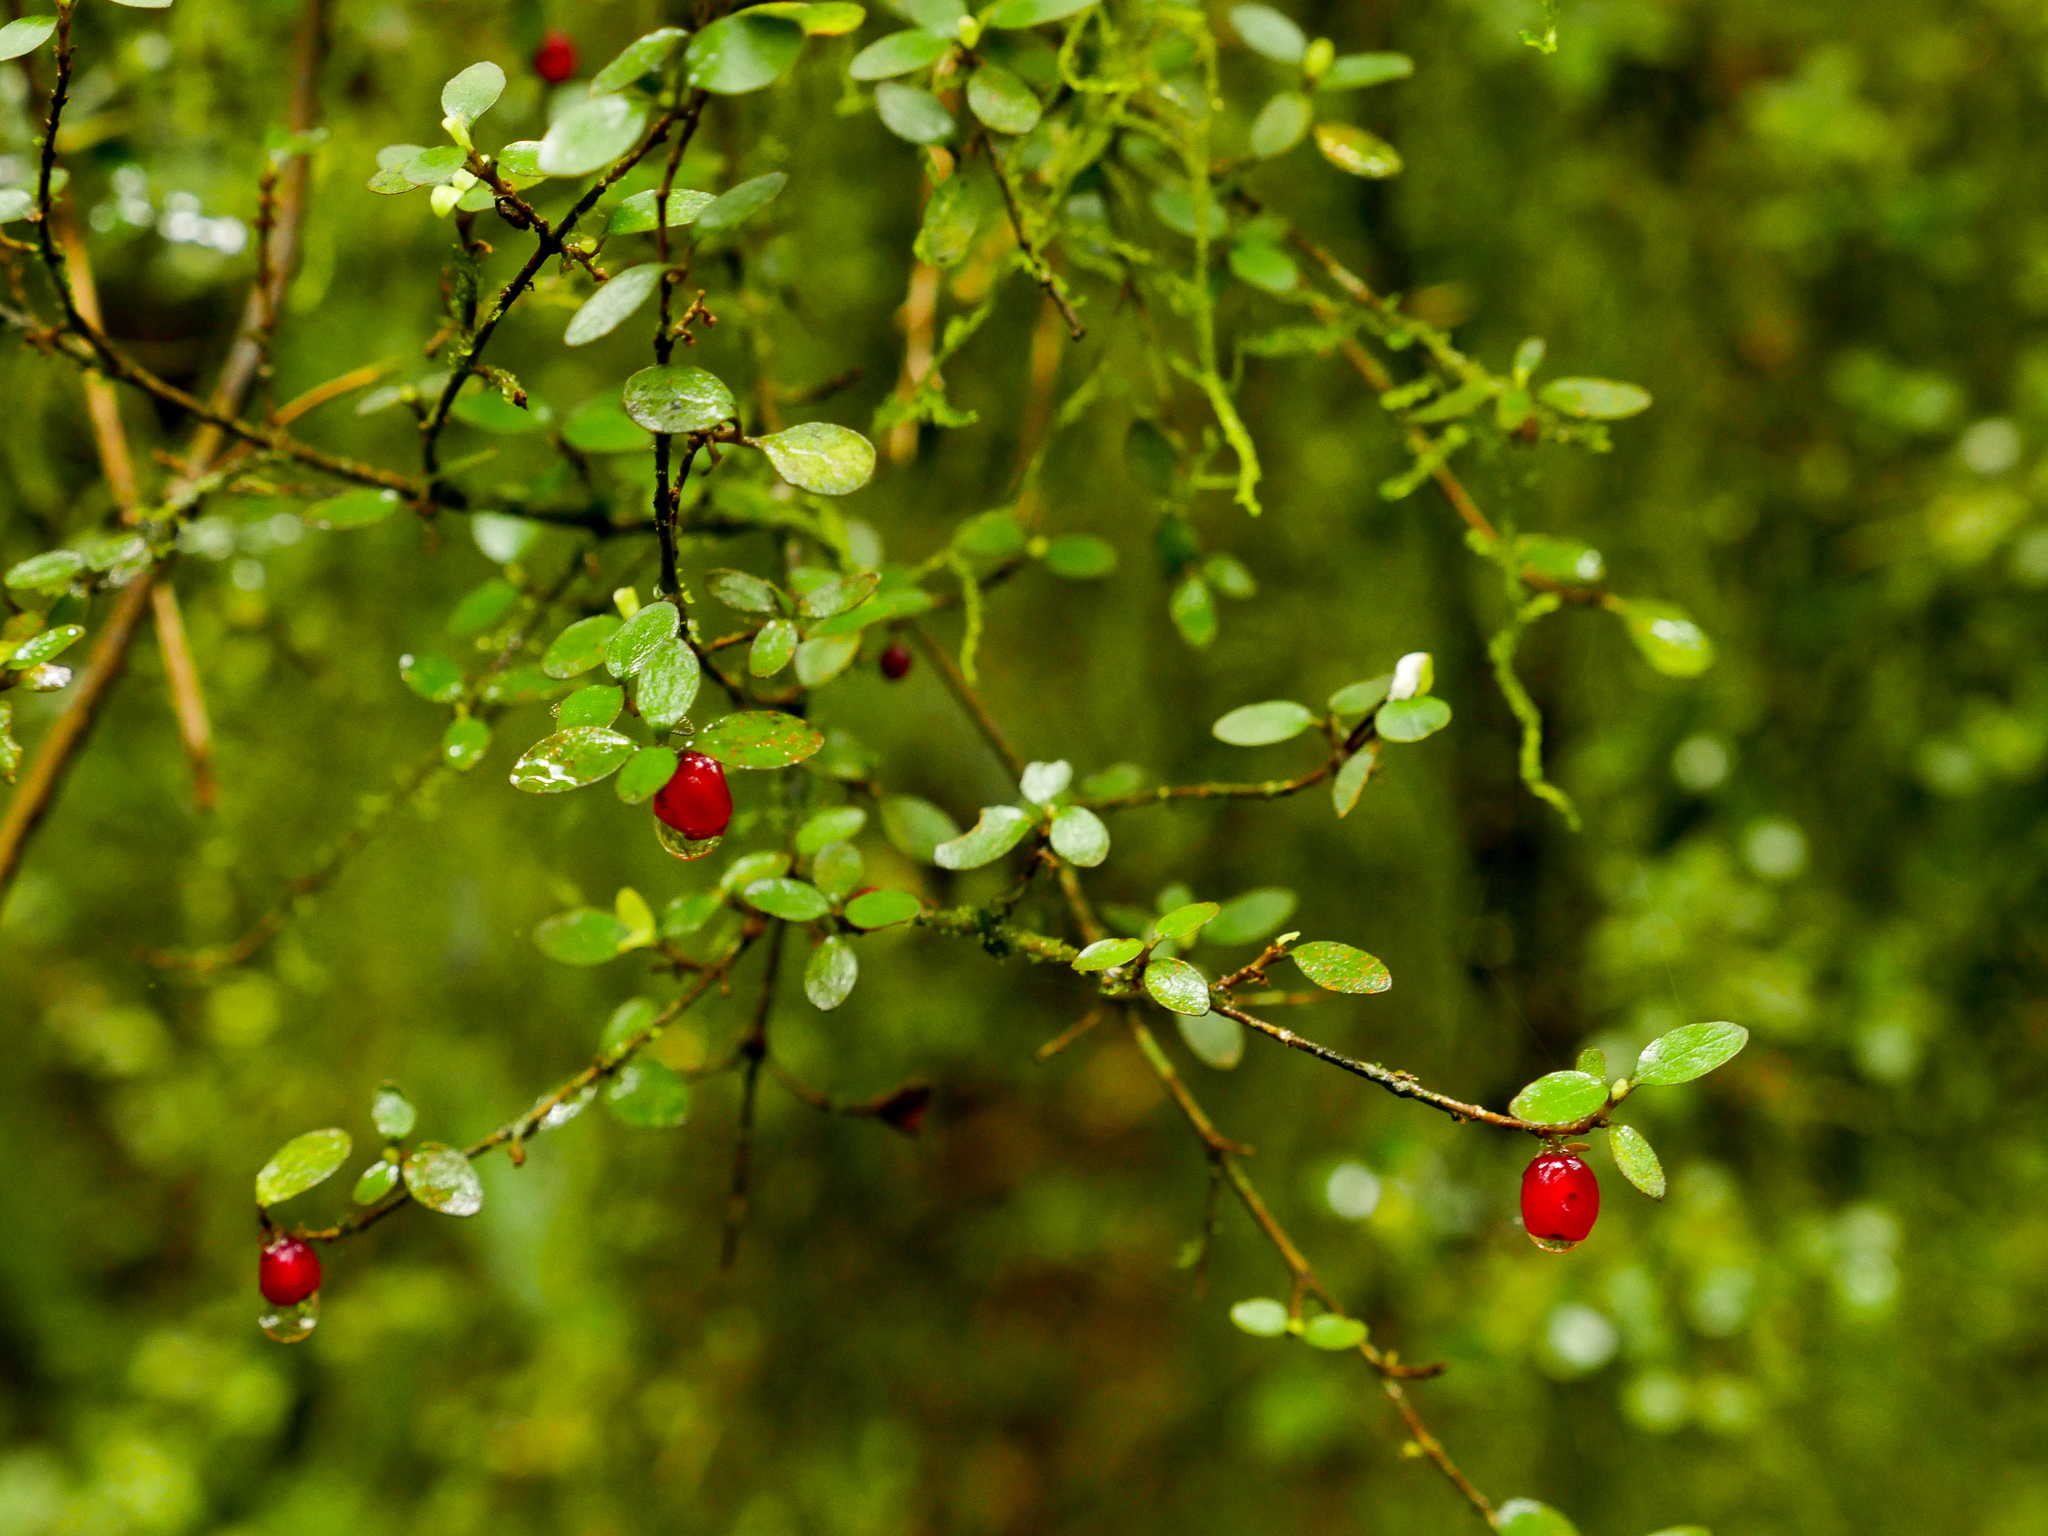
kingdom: Plantae
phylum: Tracheophyta
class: Magnoliopsida
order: Gentianales
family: Rubiaceae
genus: Coprosma
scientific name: Coprosma rhamnoides
